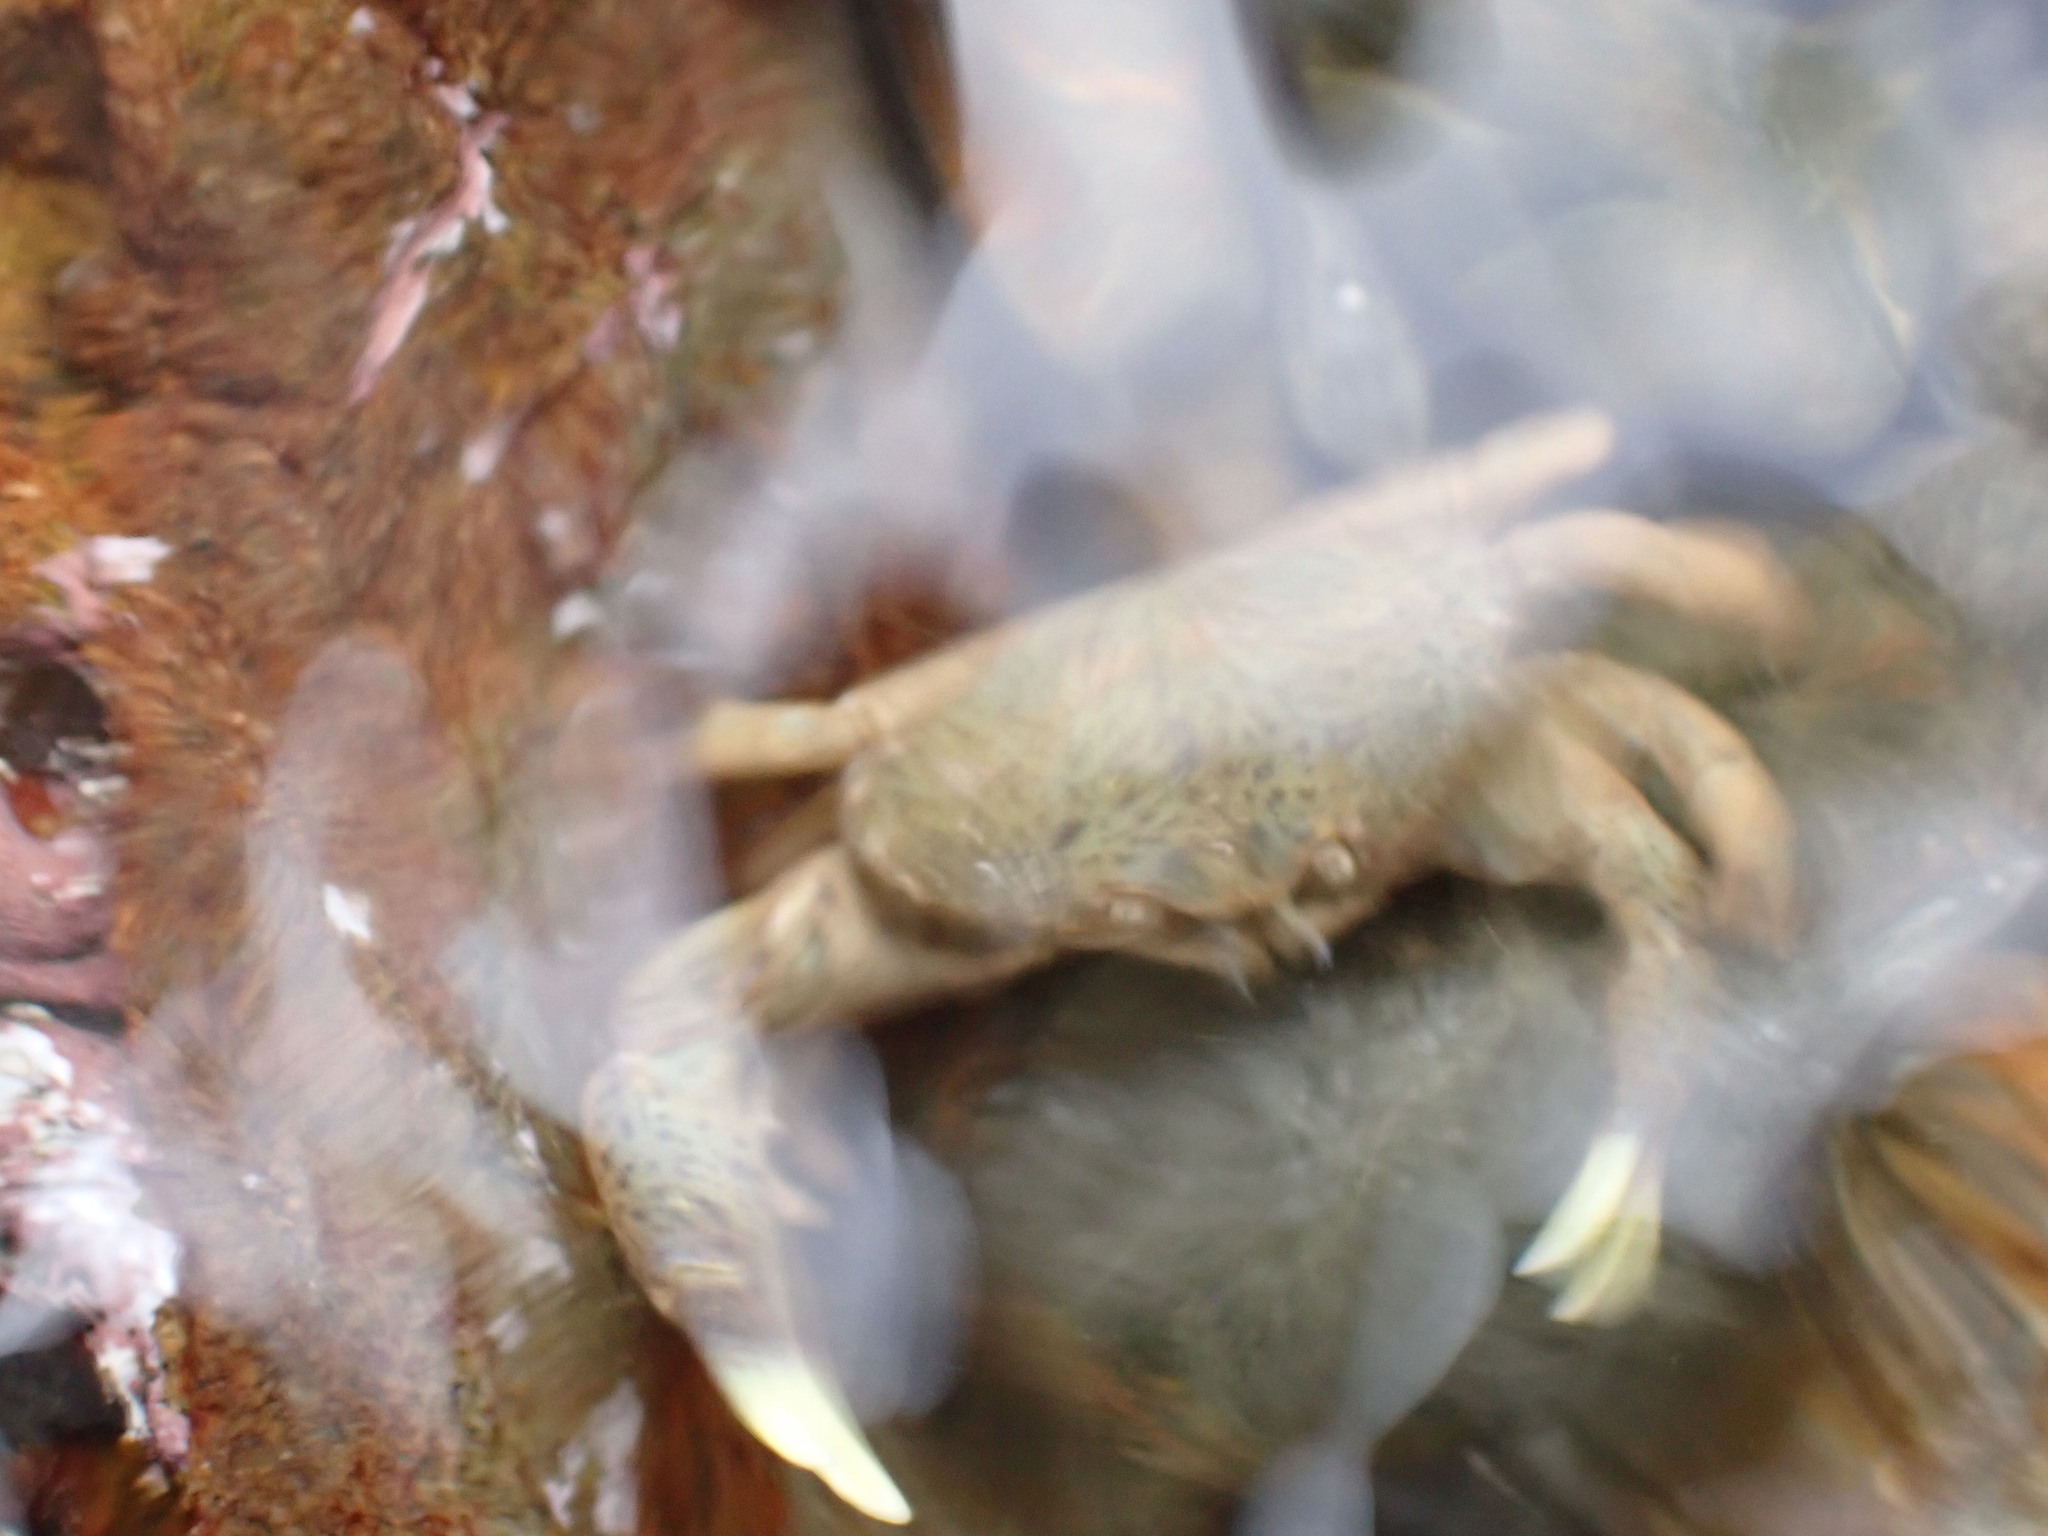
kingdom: Animalia
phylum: Arthropoda
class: Malacostraca
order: Decapoda
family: Heteroziidae
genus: Heterozius
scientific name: Heterozius rotundifrons
